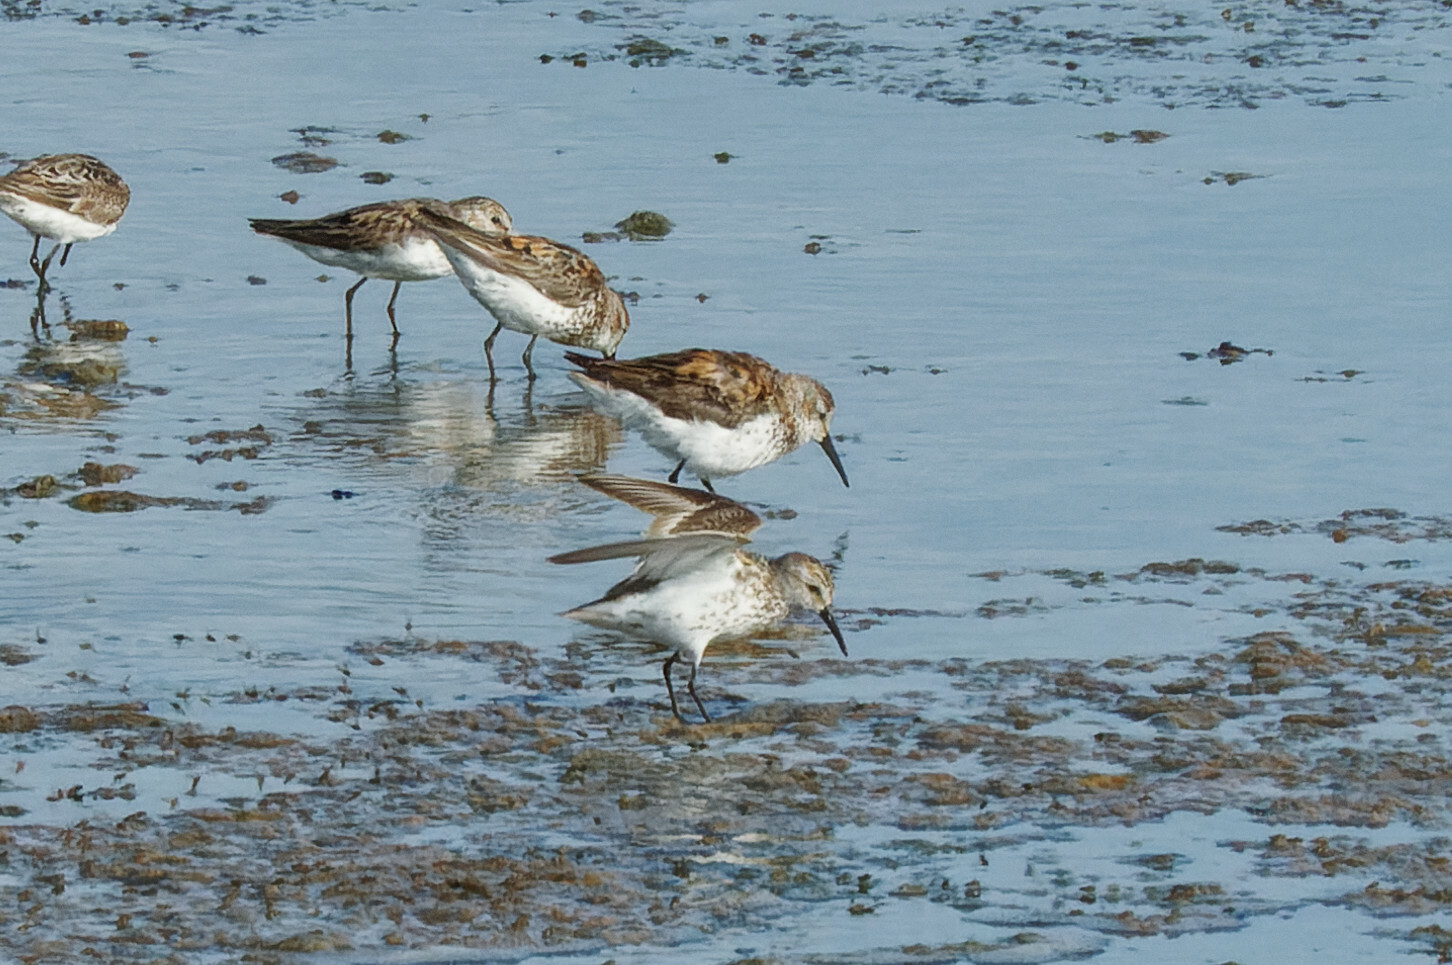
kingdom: Animalia
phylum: Chordata
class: Aves
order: Charadriiformes
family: Scolopacidae
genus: Calidris
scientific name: Calidris mauri
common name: Western sandpiper
